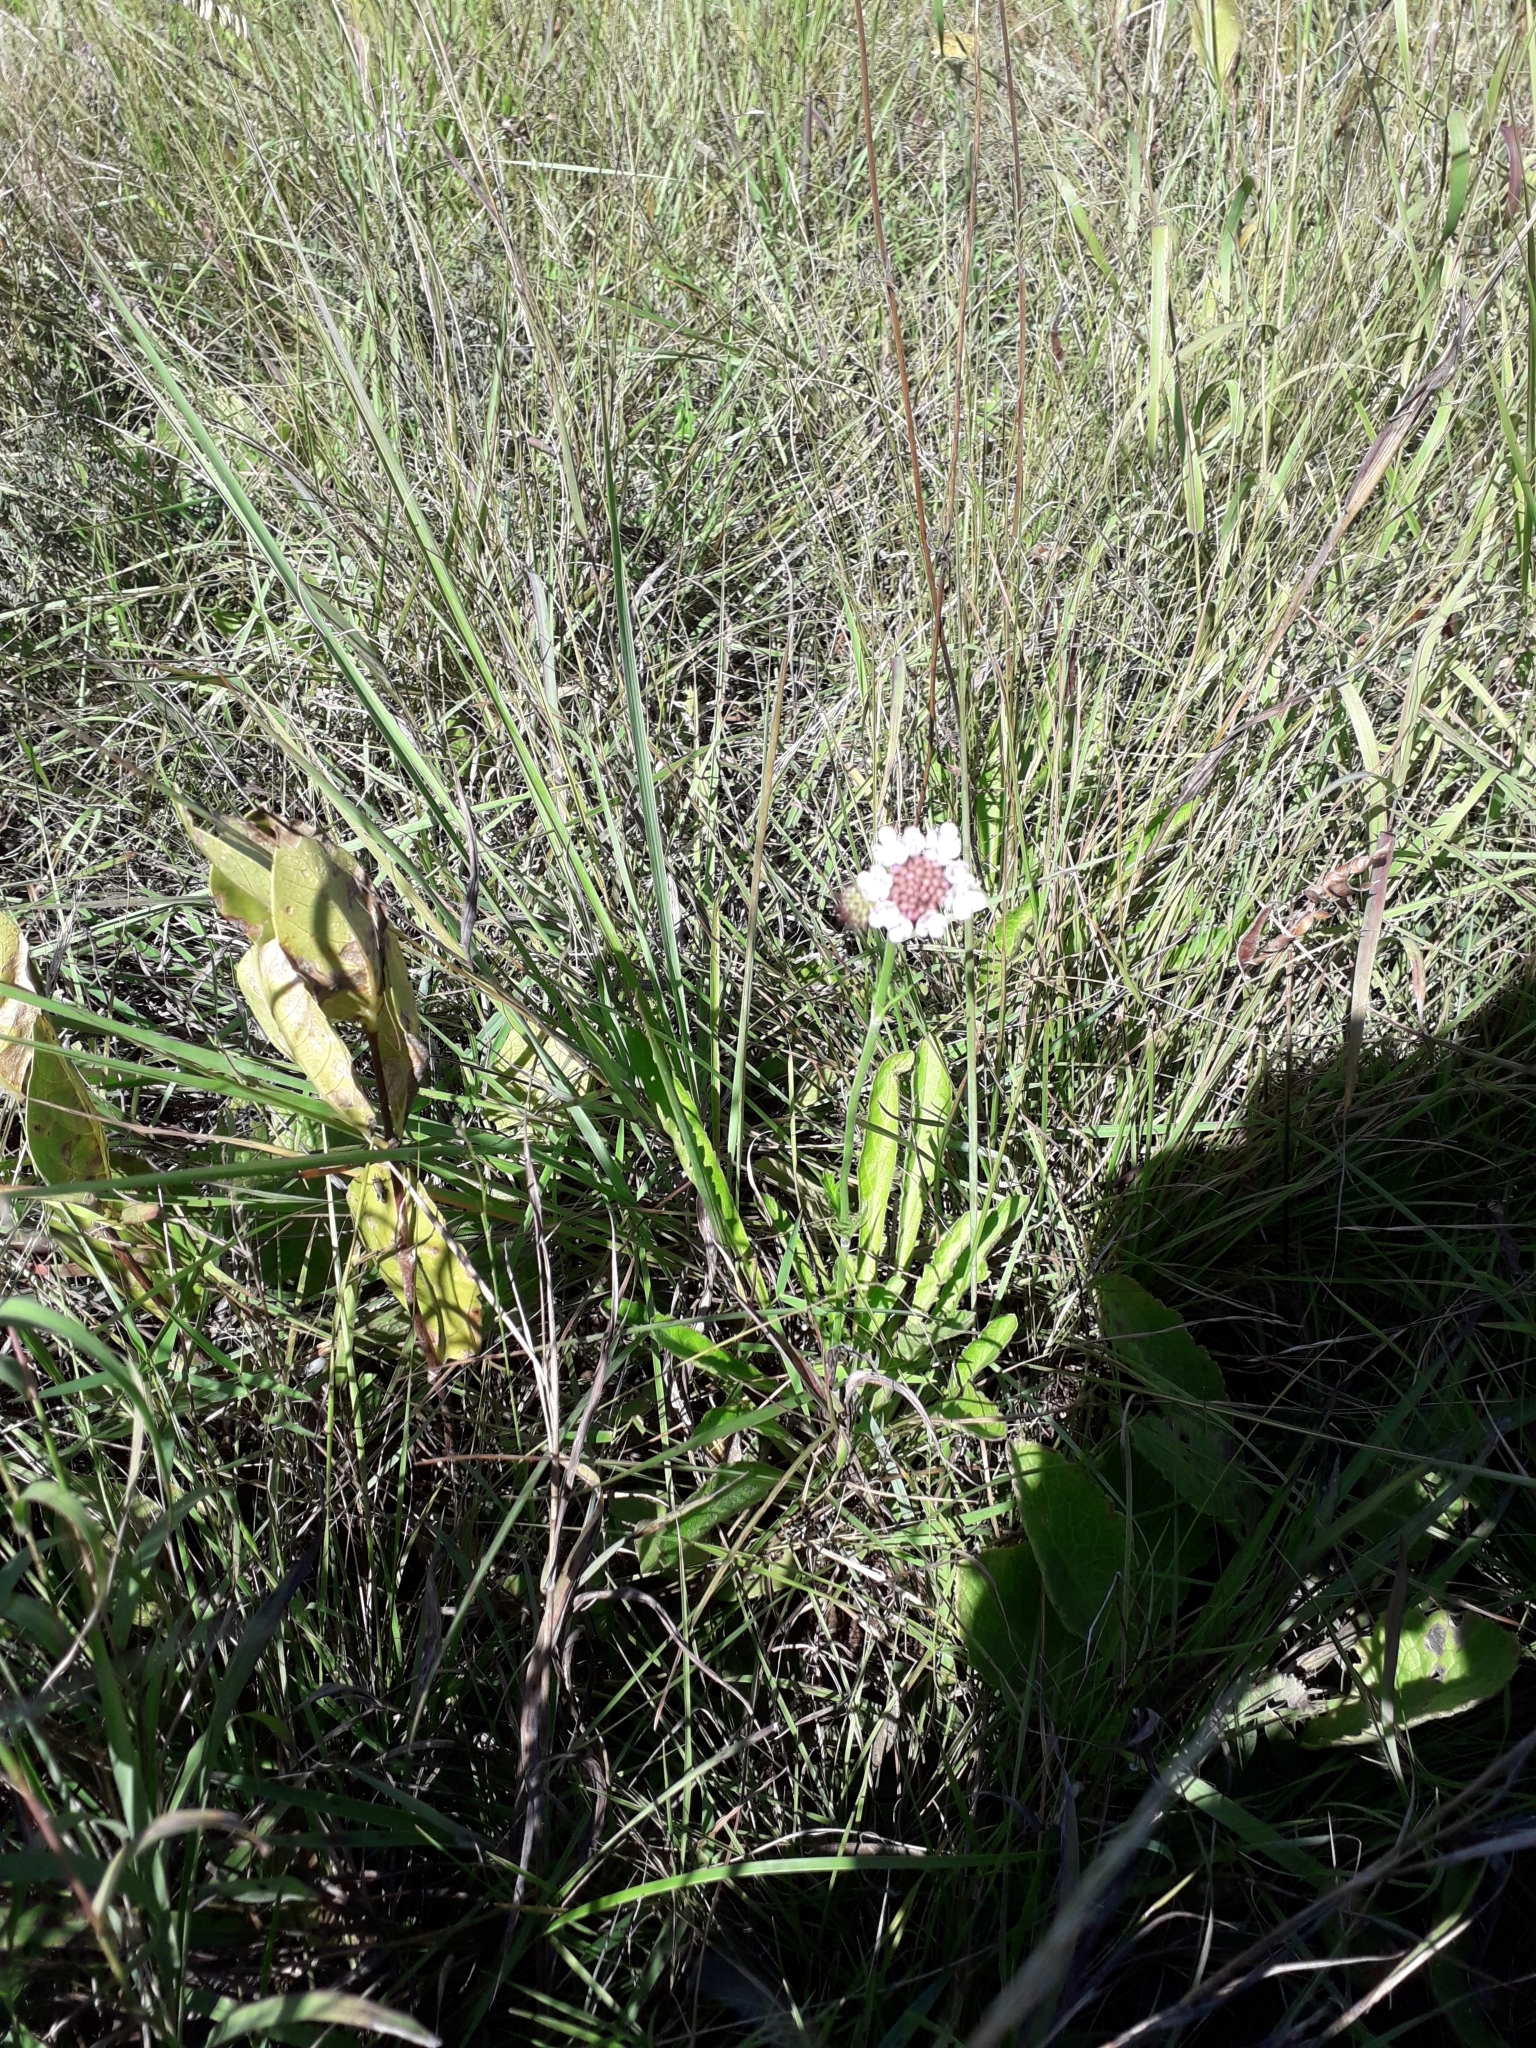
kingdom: Plantae
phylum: Tracheophyta
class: Magnoliopsida
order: Dipsacales
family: Caprifoliaceae
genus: Scabiosa
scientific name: Scabiosa columbaria
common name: Small scabious
